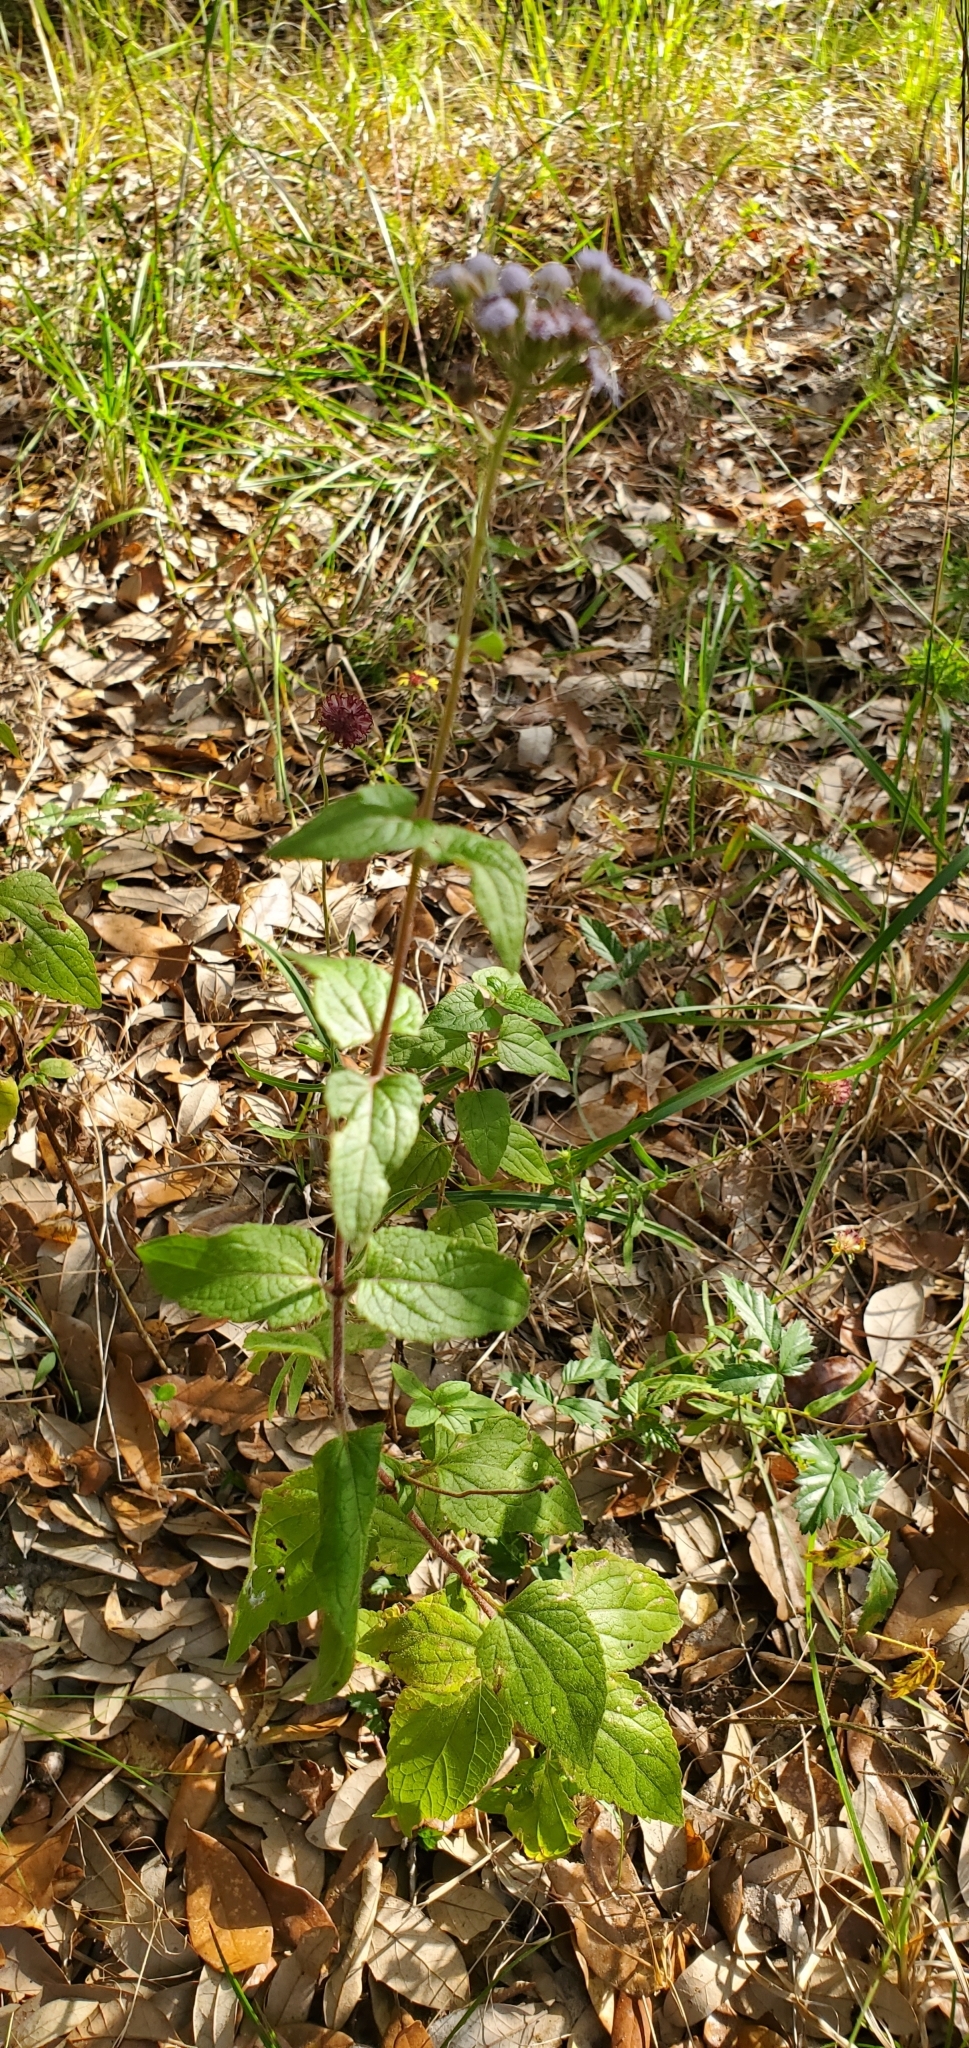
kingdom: Plantae
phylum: Tracheophyta
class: Magnoliopsida
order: Asterales
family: Asteraceae
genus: Conoclinium
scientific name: Conoclinium coelestinum
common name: Blue mistflower
